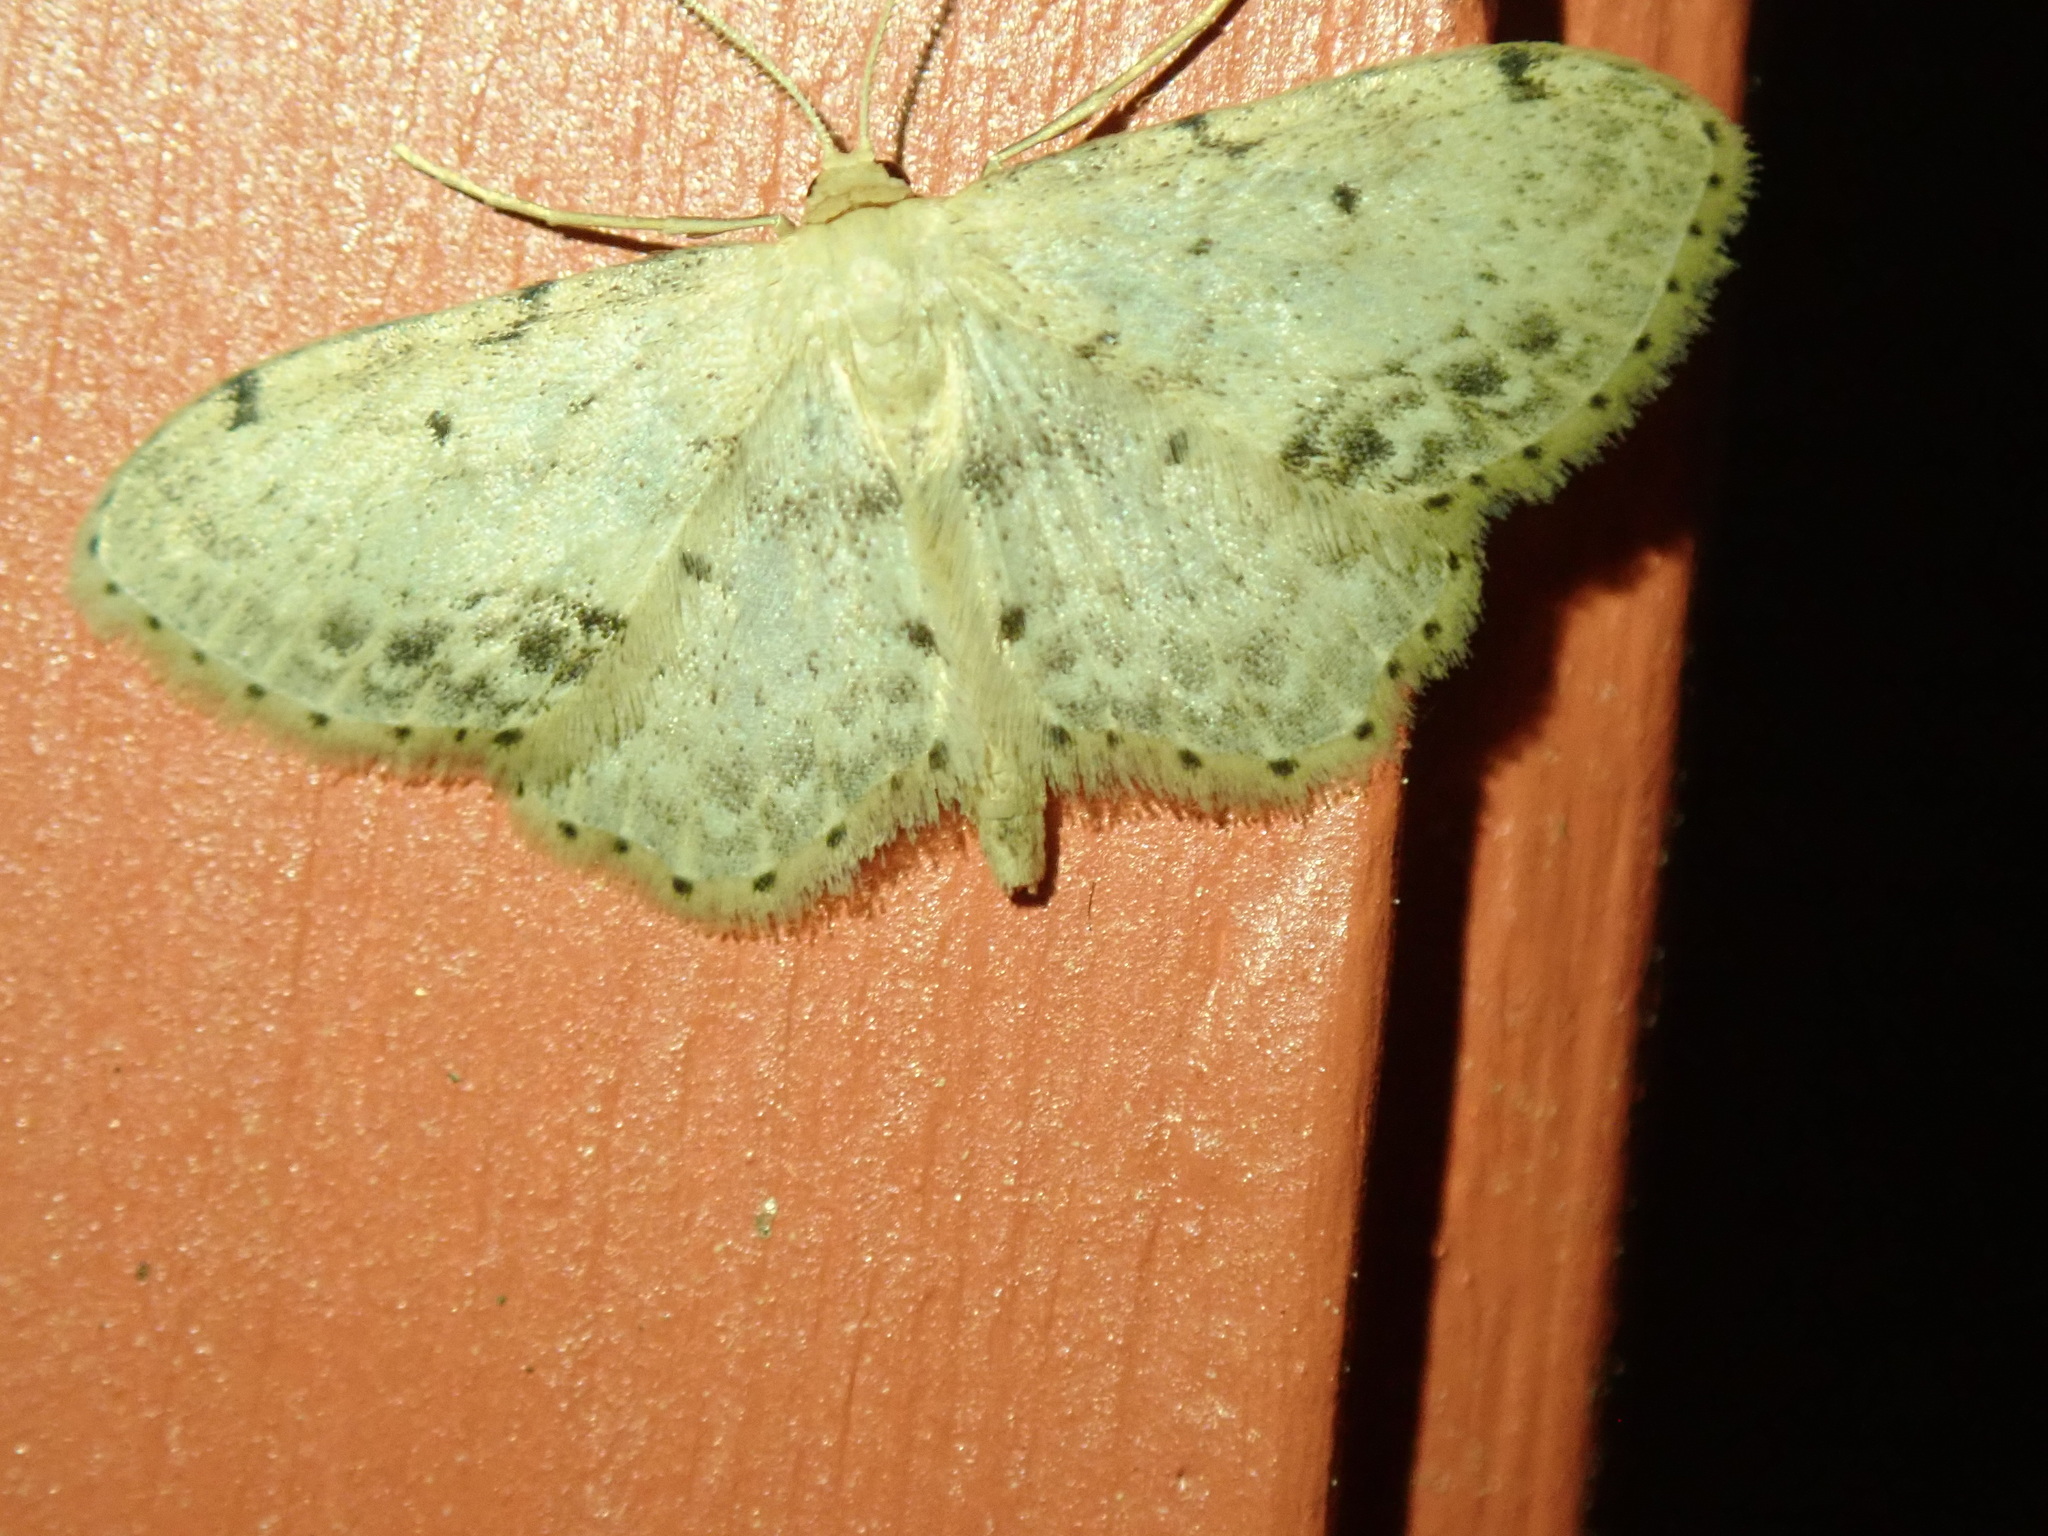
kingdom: Animalia
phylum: Arthropoda
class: Insecta
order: Lepidoptera
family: Geometridae
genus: Idaea
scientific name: Idaea dimidiata
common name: Single-dotted wave
